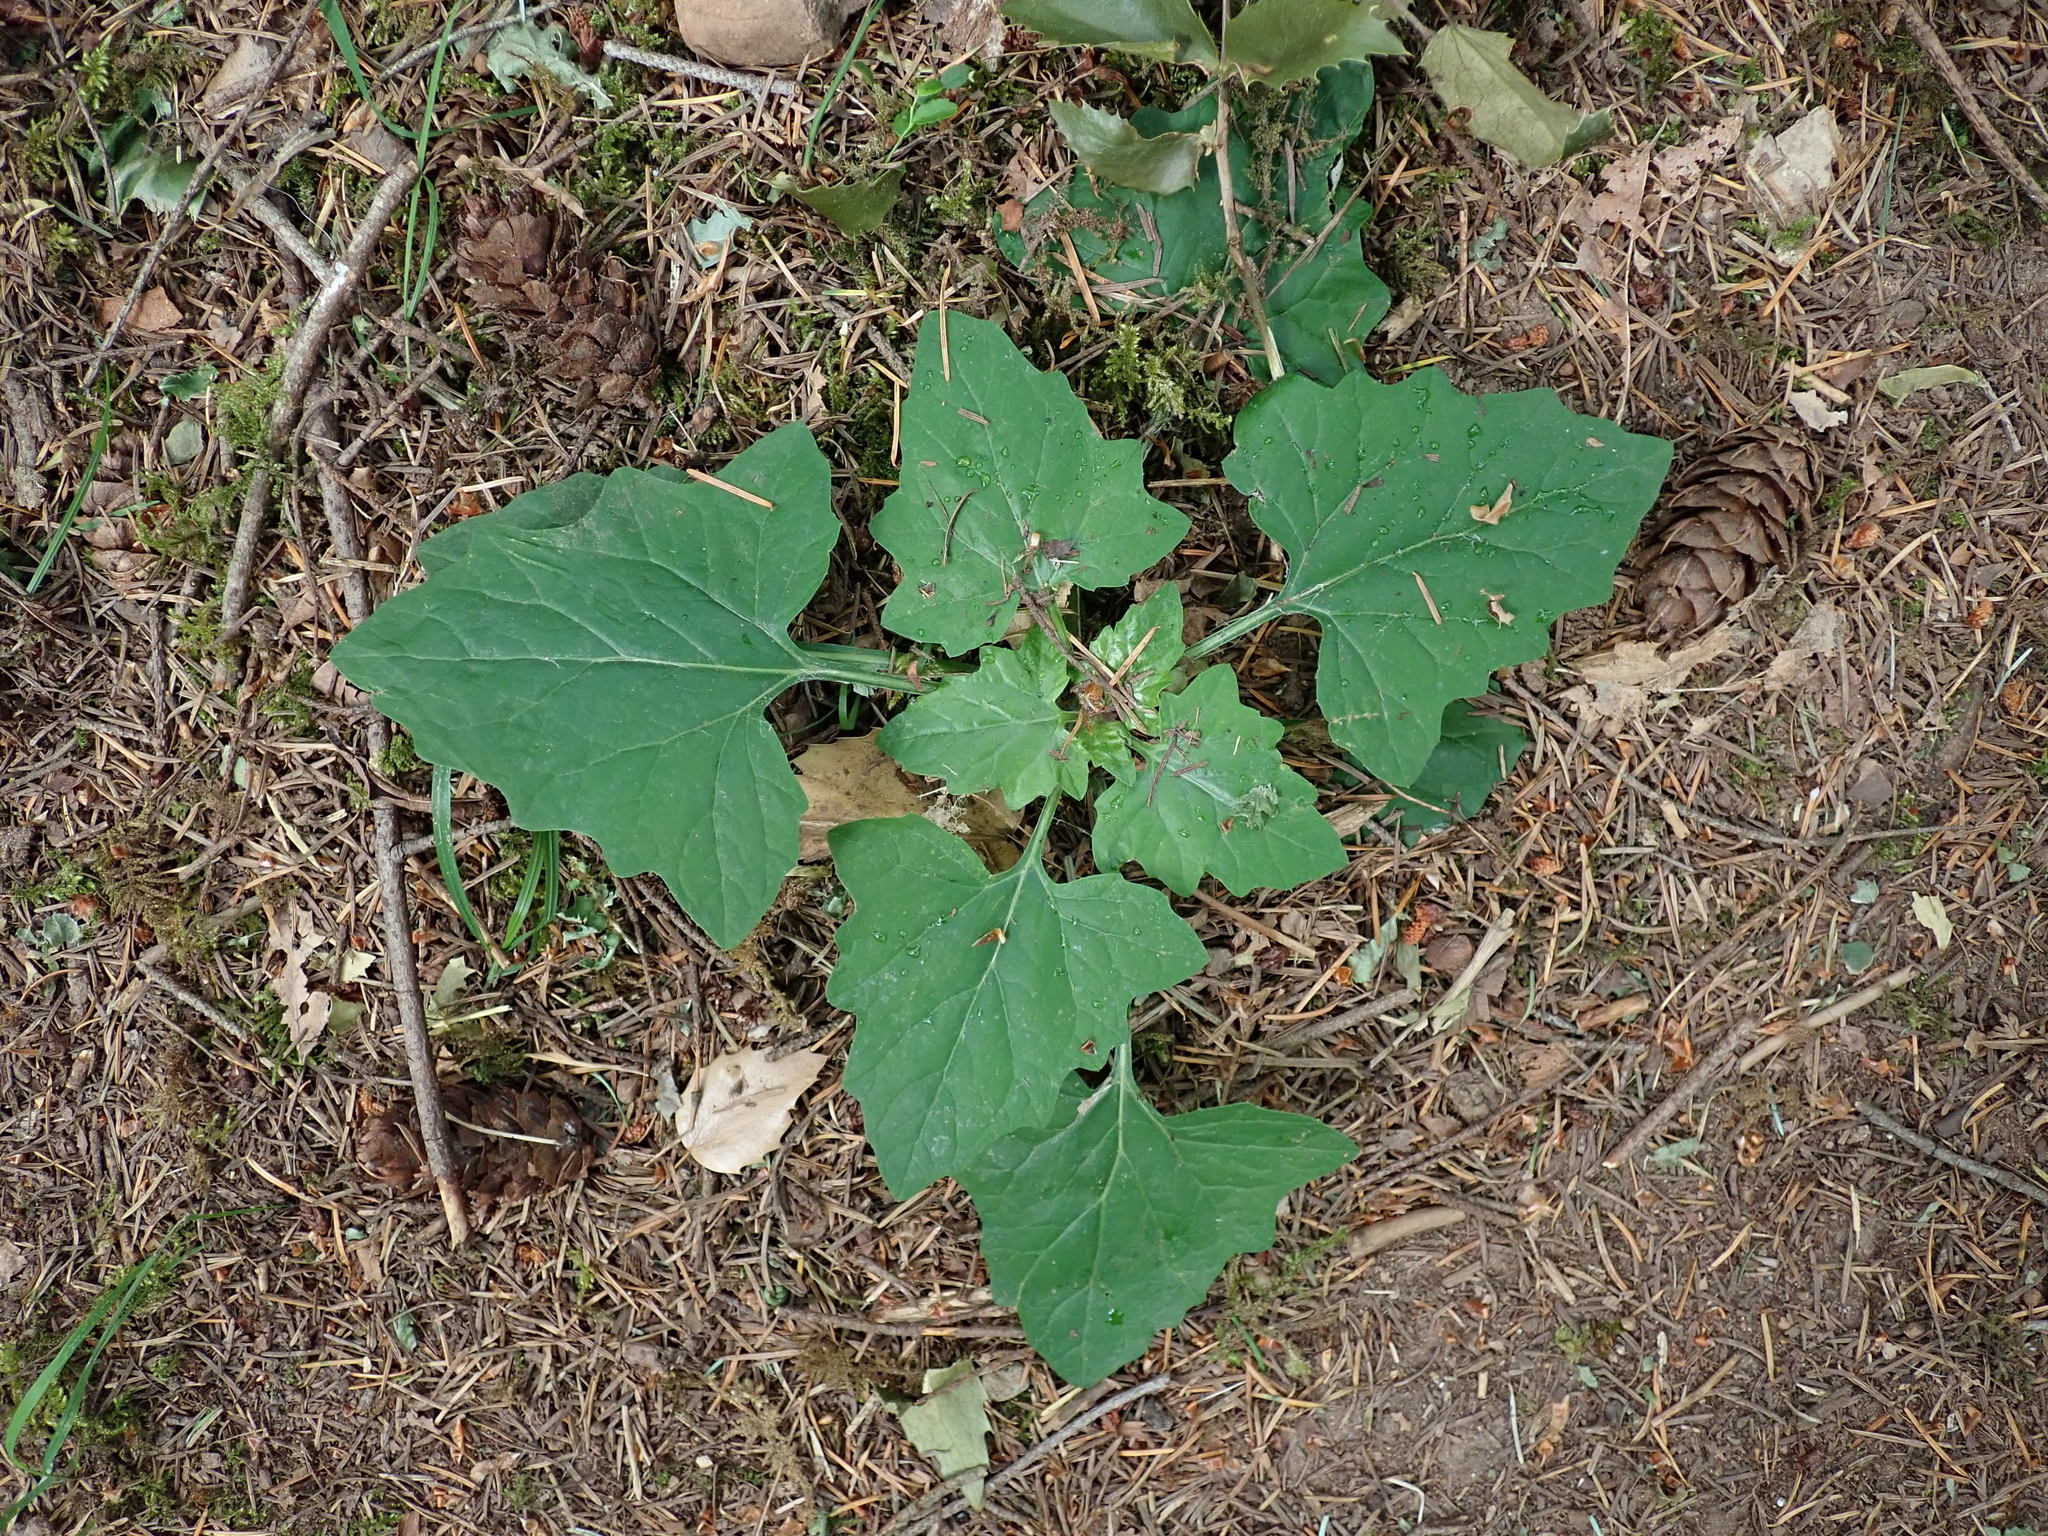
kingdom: Plantae
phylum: Tracheophyta
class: Magnoliopsida
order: Asterales
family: Asteraceae
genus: Adenocaulon
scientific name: Adenocaulon bicolor
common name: Trailplant
